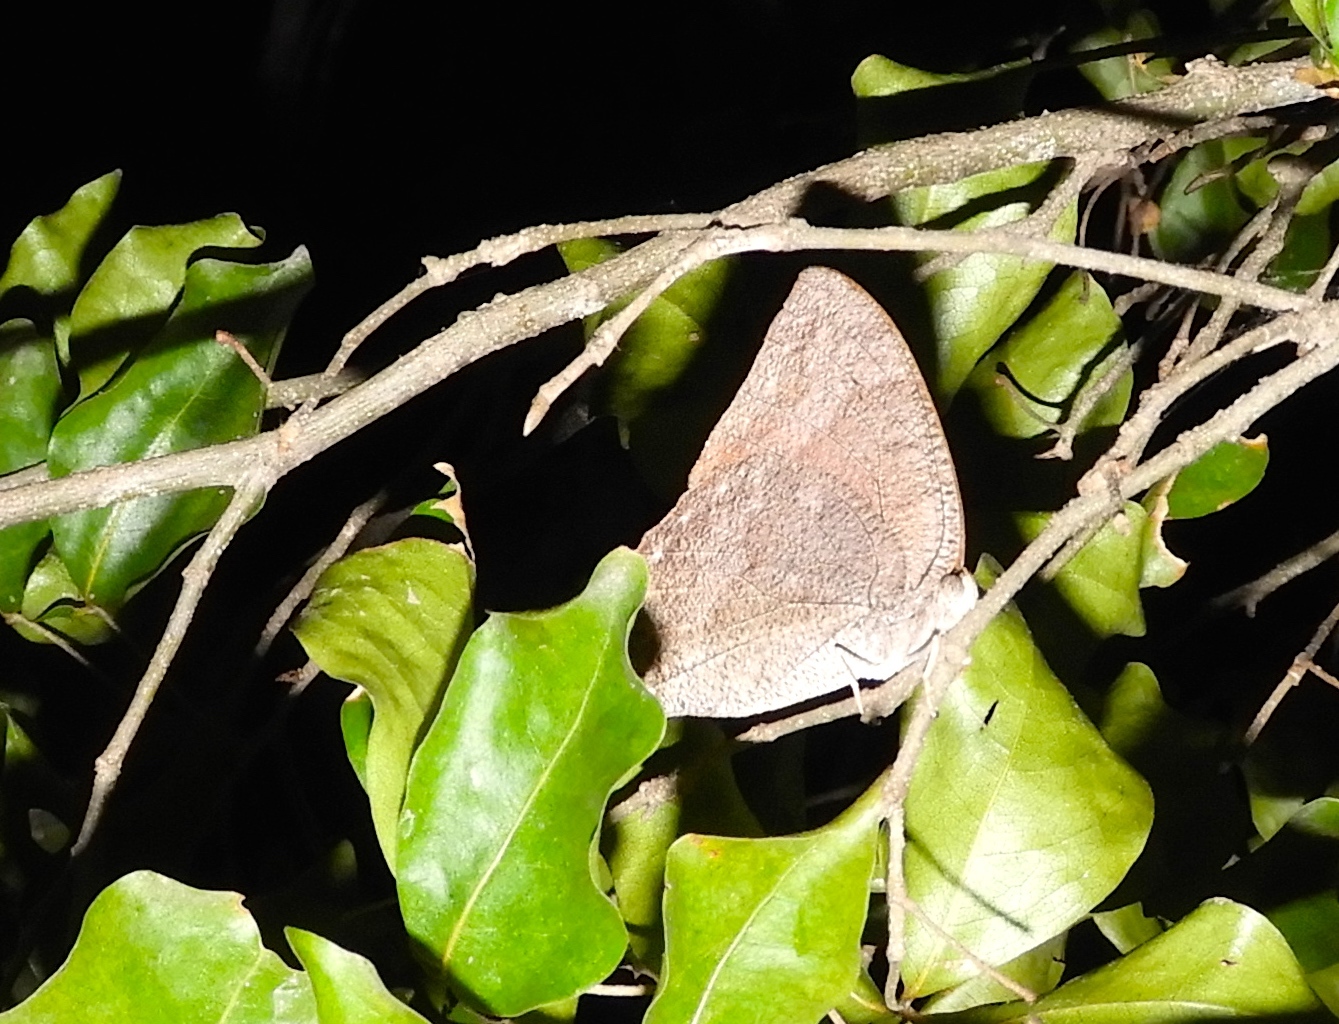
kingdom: Animalia
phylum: Arthropoda
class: Insecta
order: Lepidoptera
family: Nymphalidae
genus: Anaea
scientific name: Anaea
